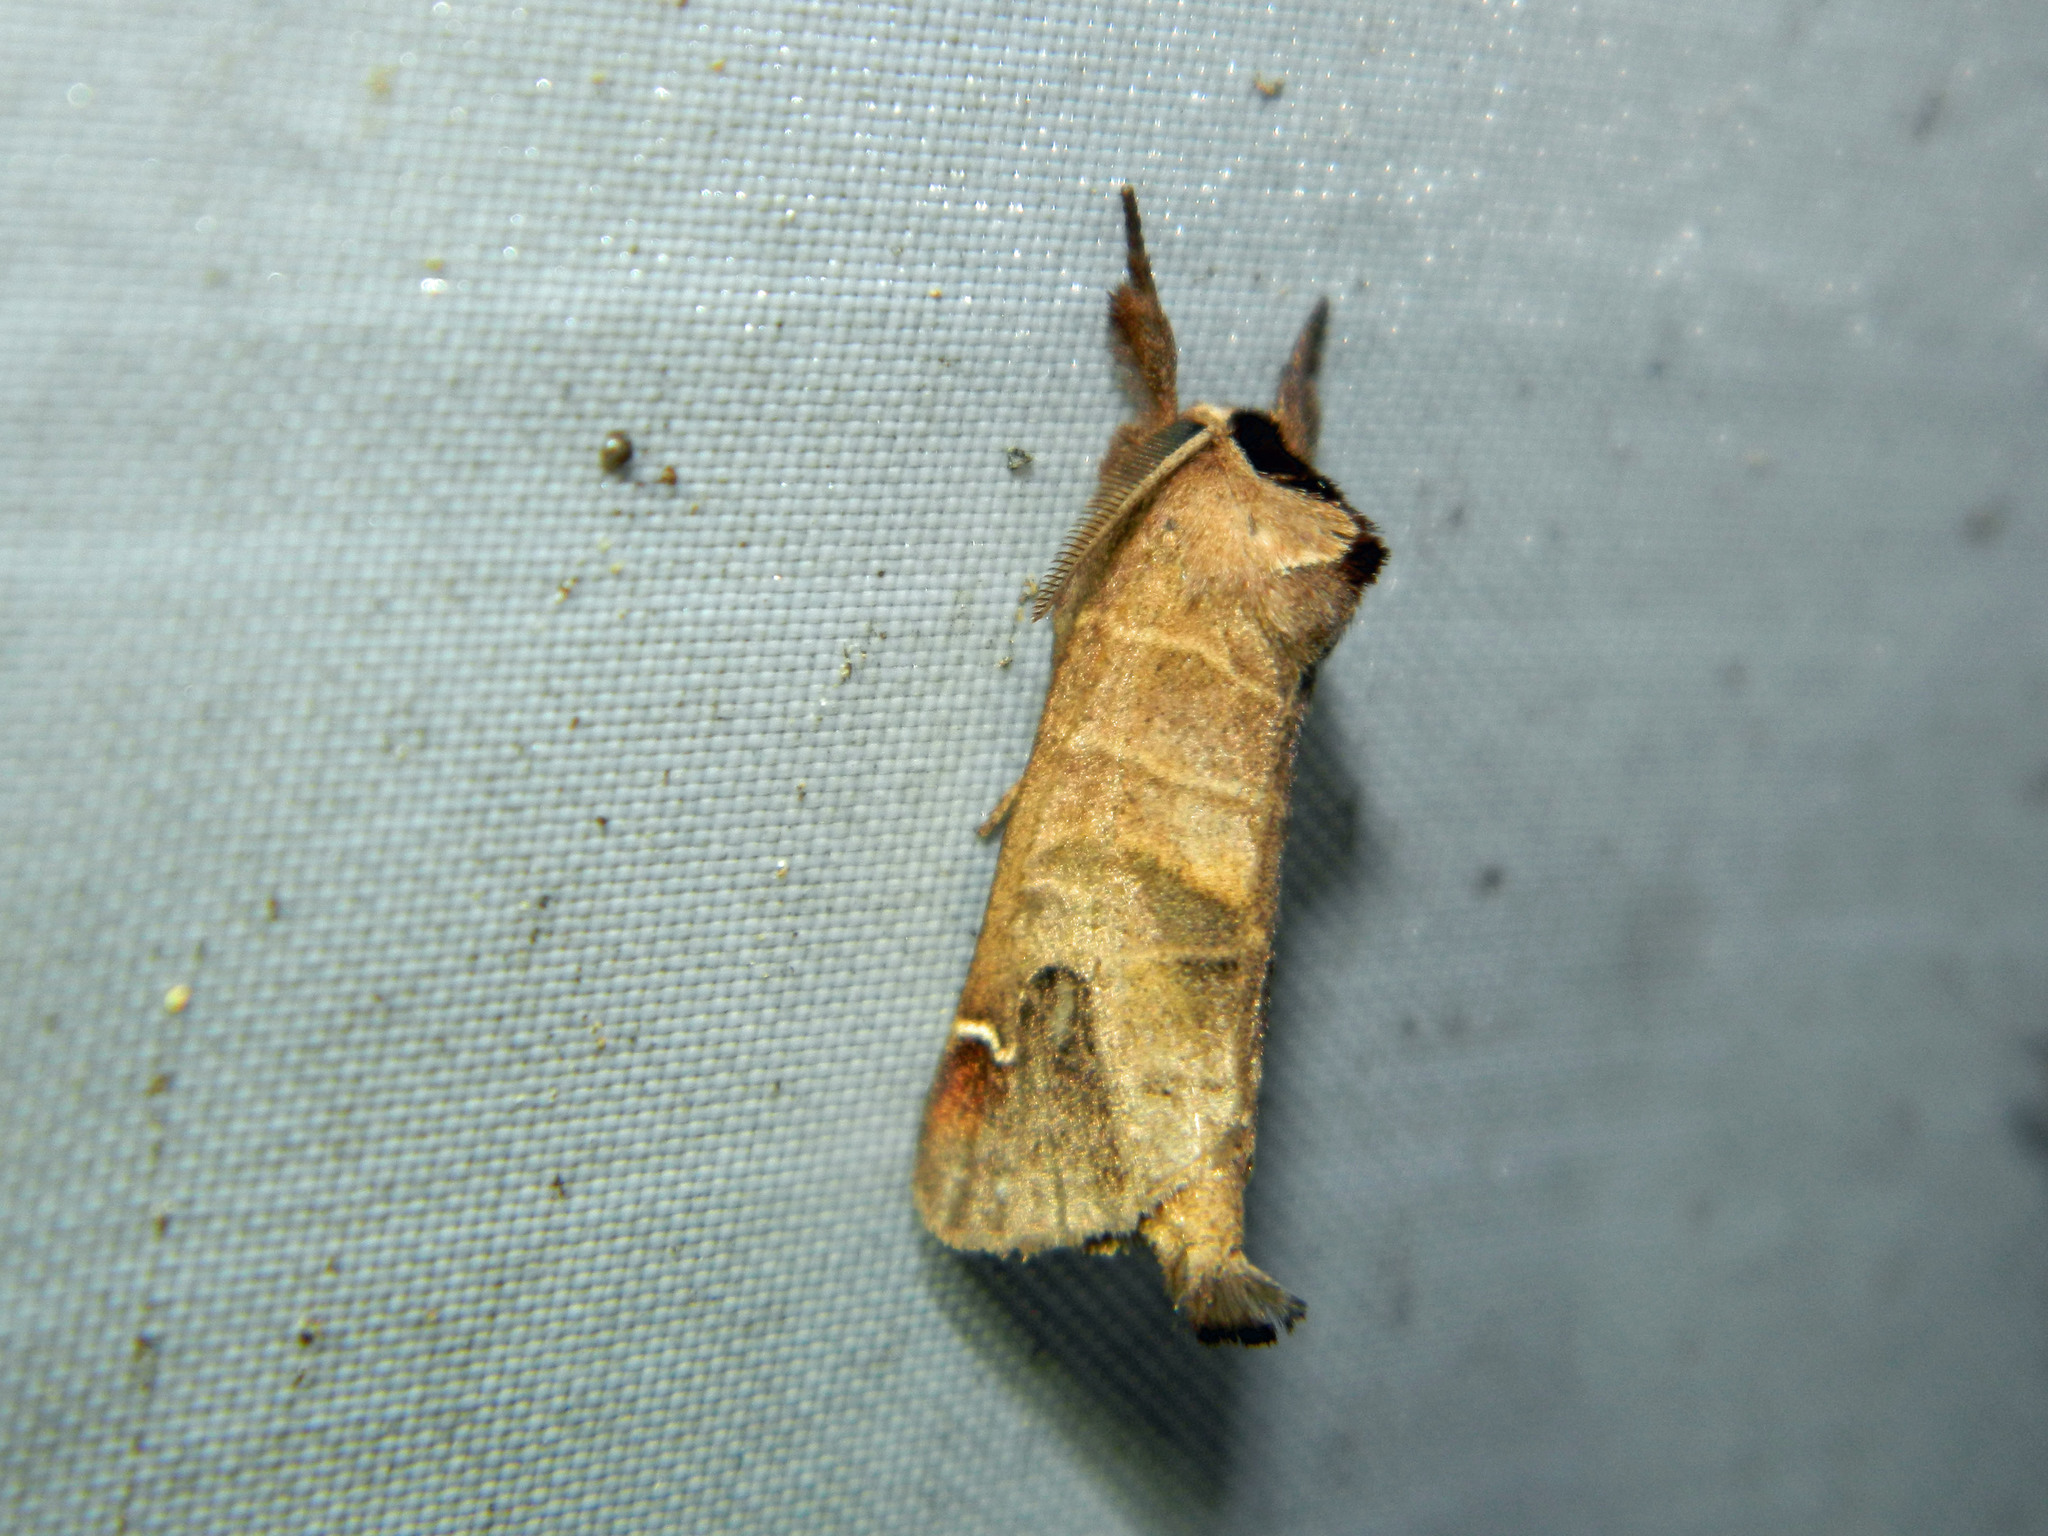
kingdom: Animalia
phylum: Arthropoda
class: Insecta
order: Lepidoptera
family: Notodontidae
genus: Clostera
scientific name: Clostera albosigma
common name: Sigmoid prominent
